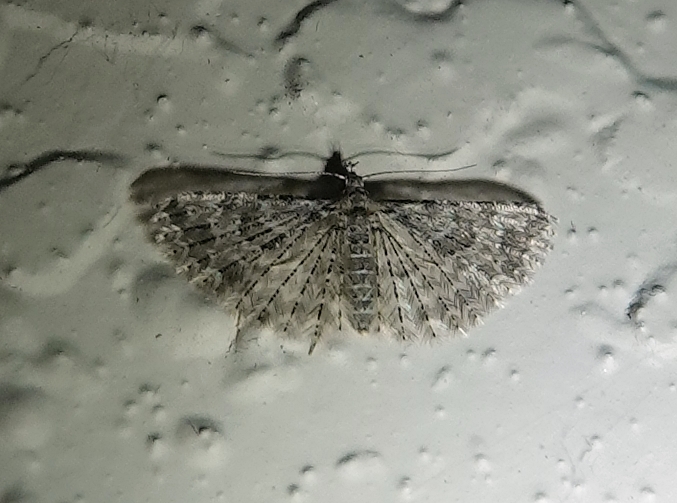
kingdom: Animalia
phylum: Arthropoda
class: Insecta
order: Lepidoptera
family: Alucitidae
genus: Alucita
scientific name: Alucita montana
